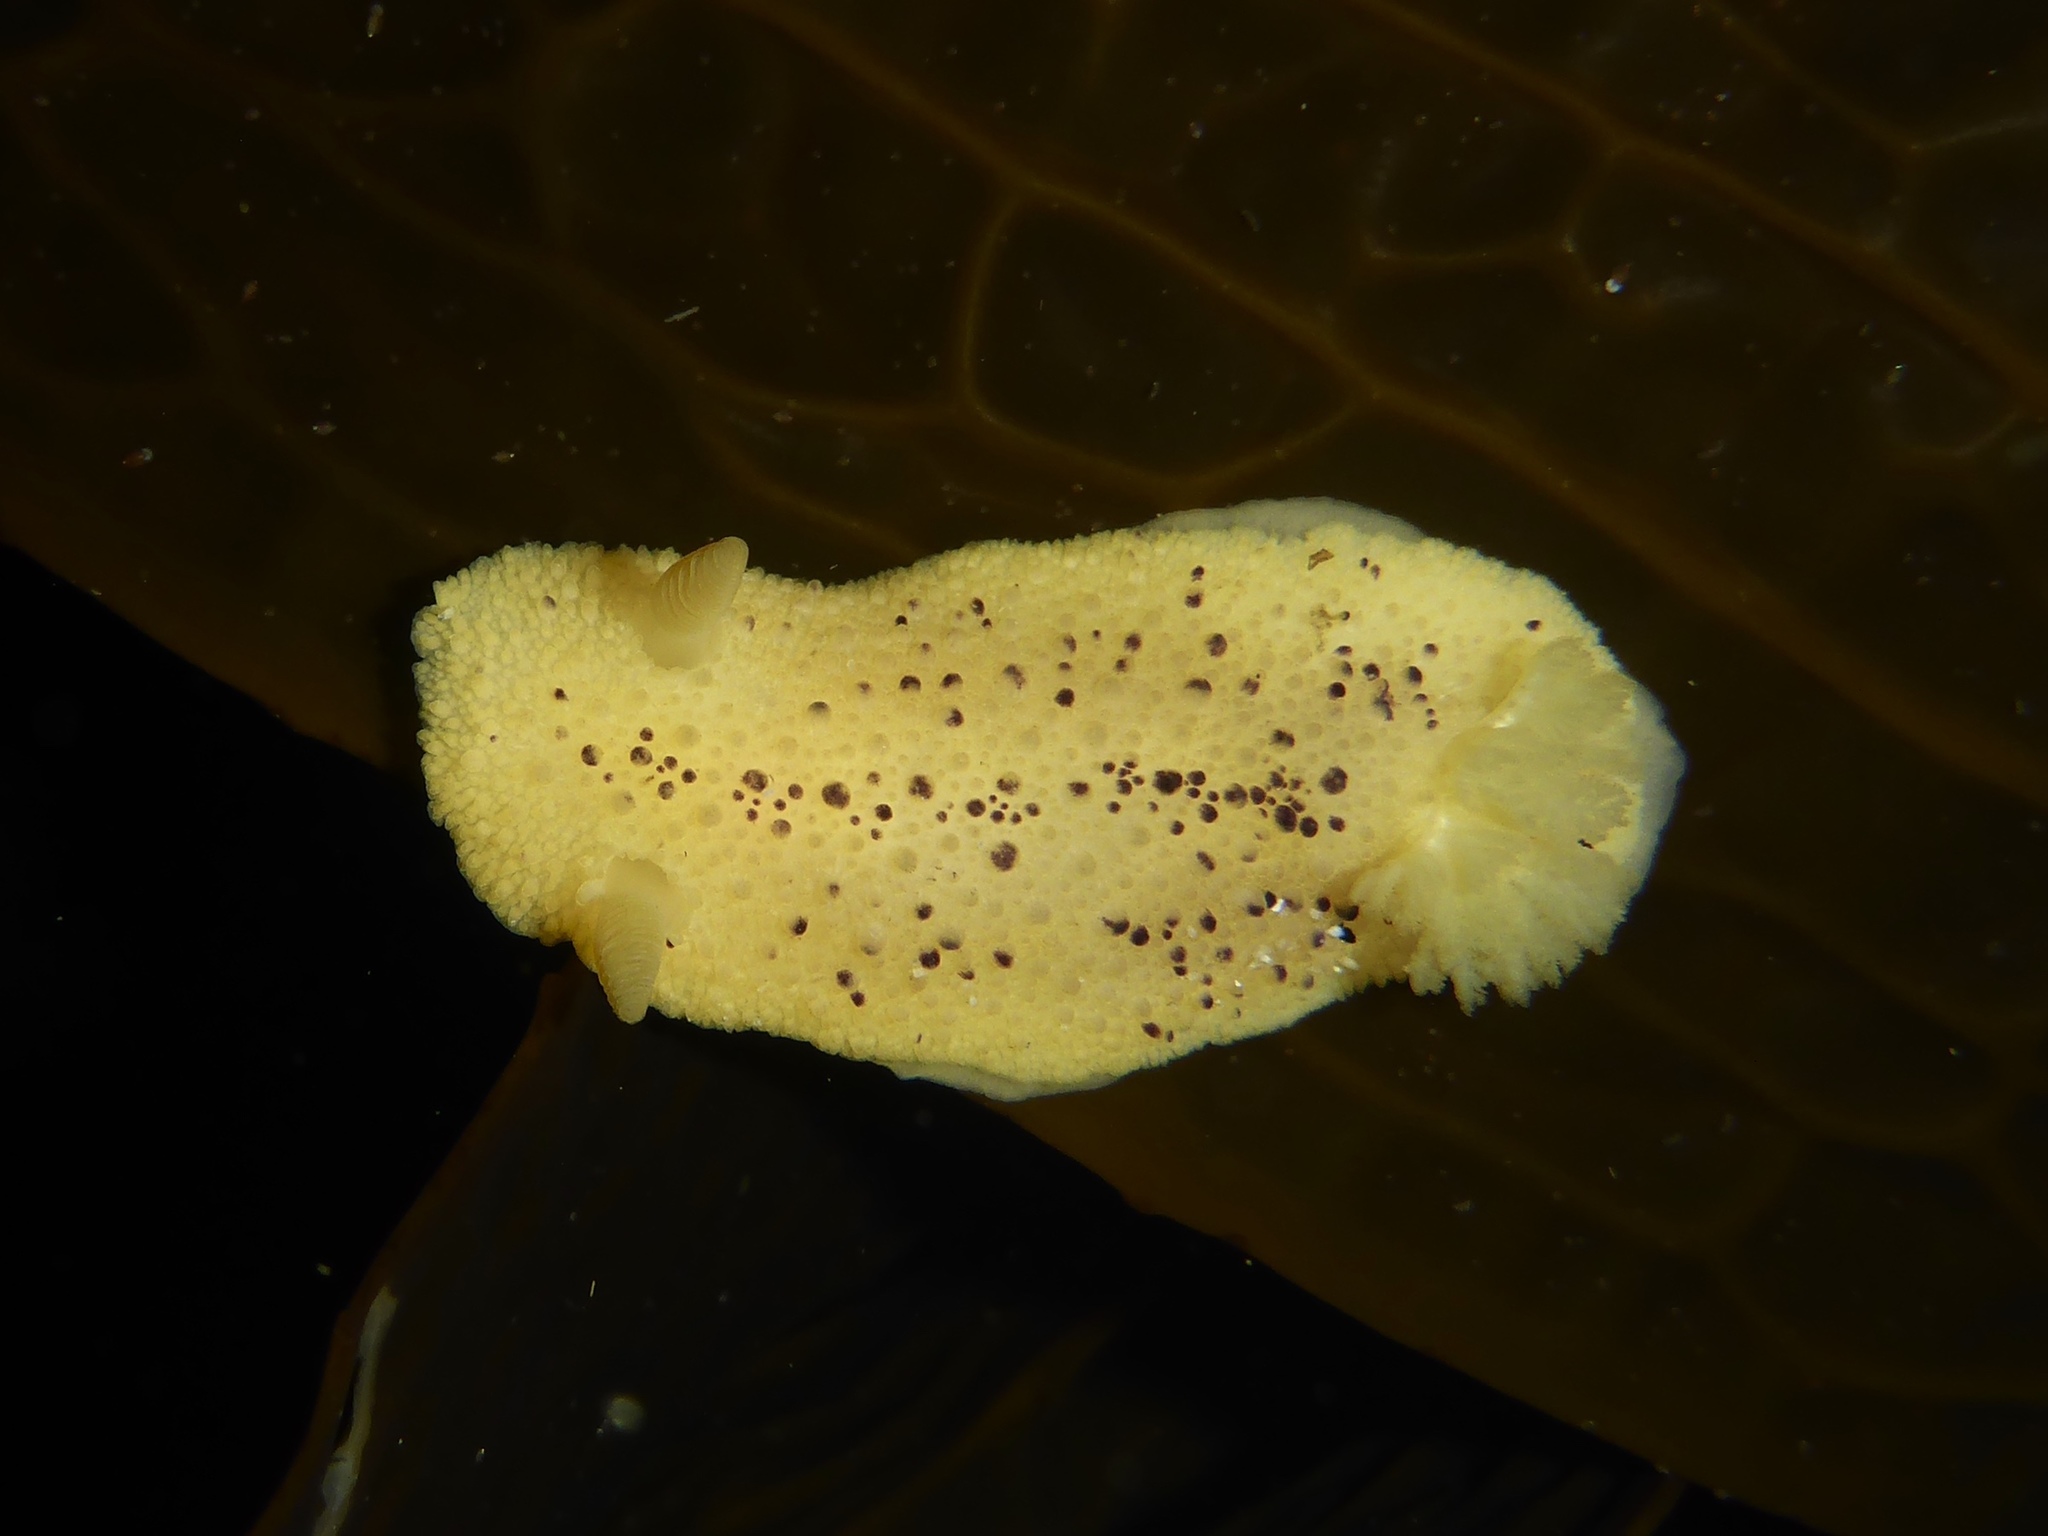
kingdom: Animalia
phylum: Mollusca
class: Gastropoda
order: Nudibranchia
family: Dorididae
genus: Doris
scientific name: Doris montereyensis
